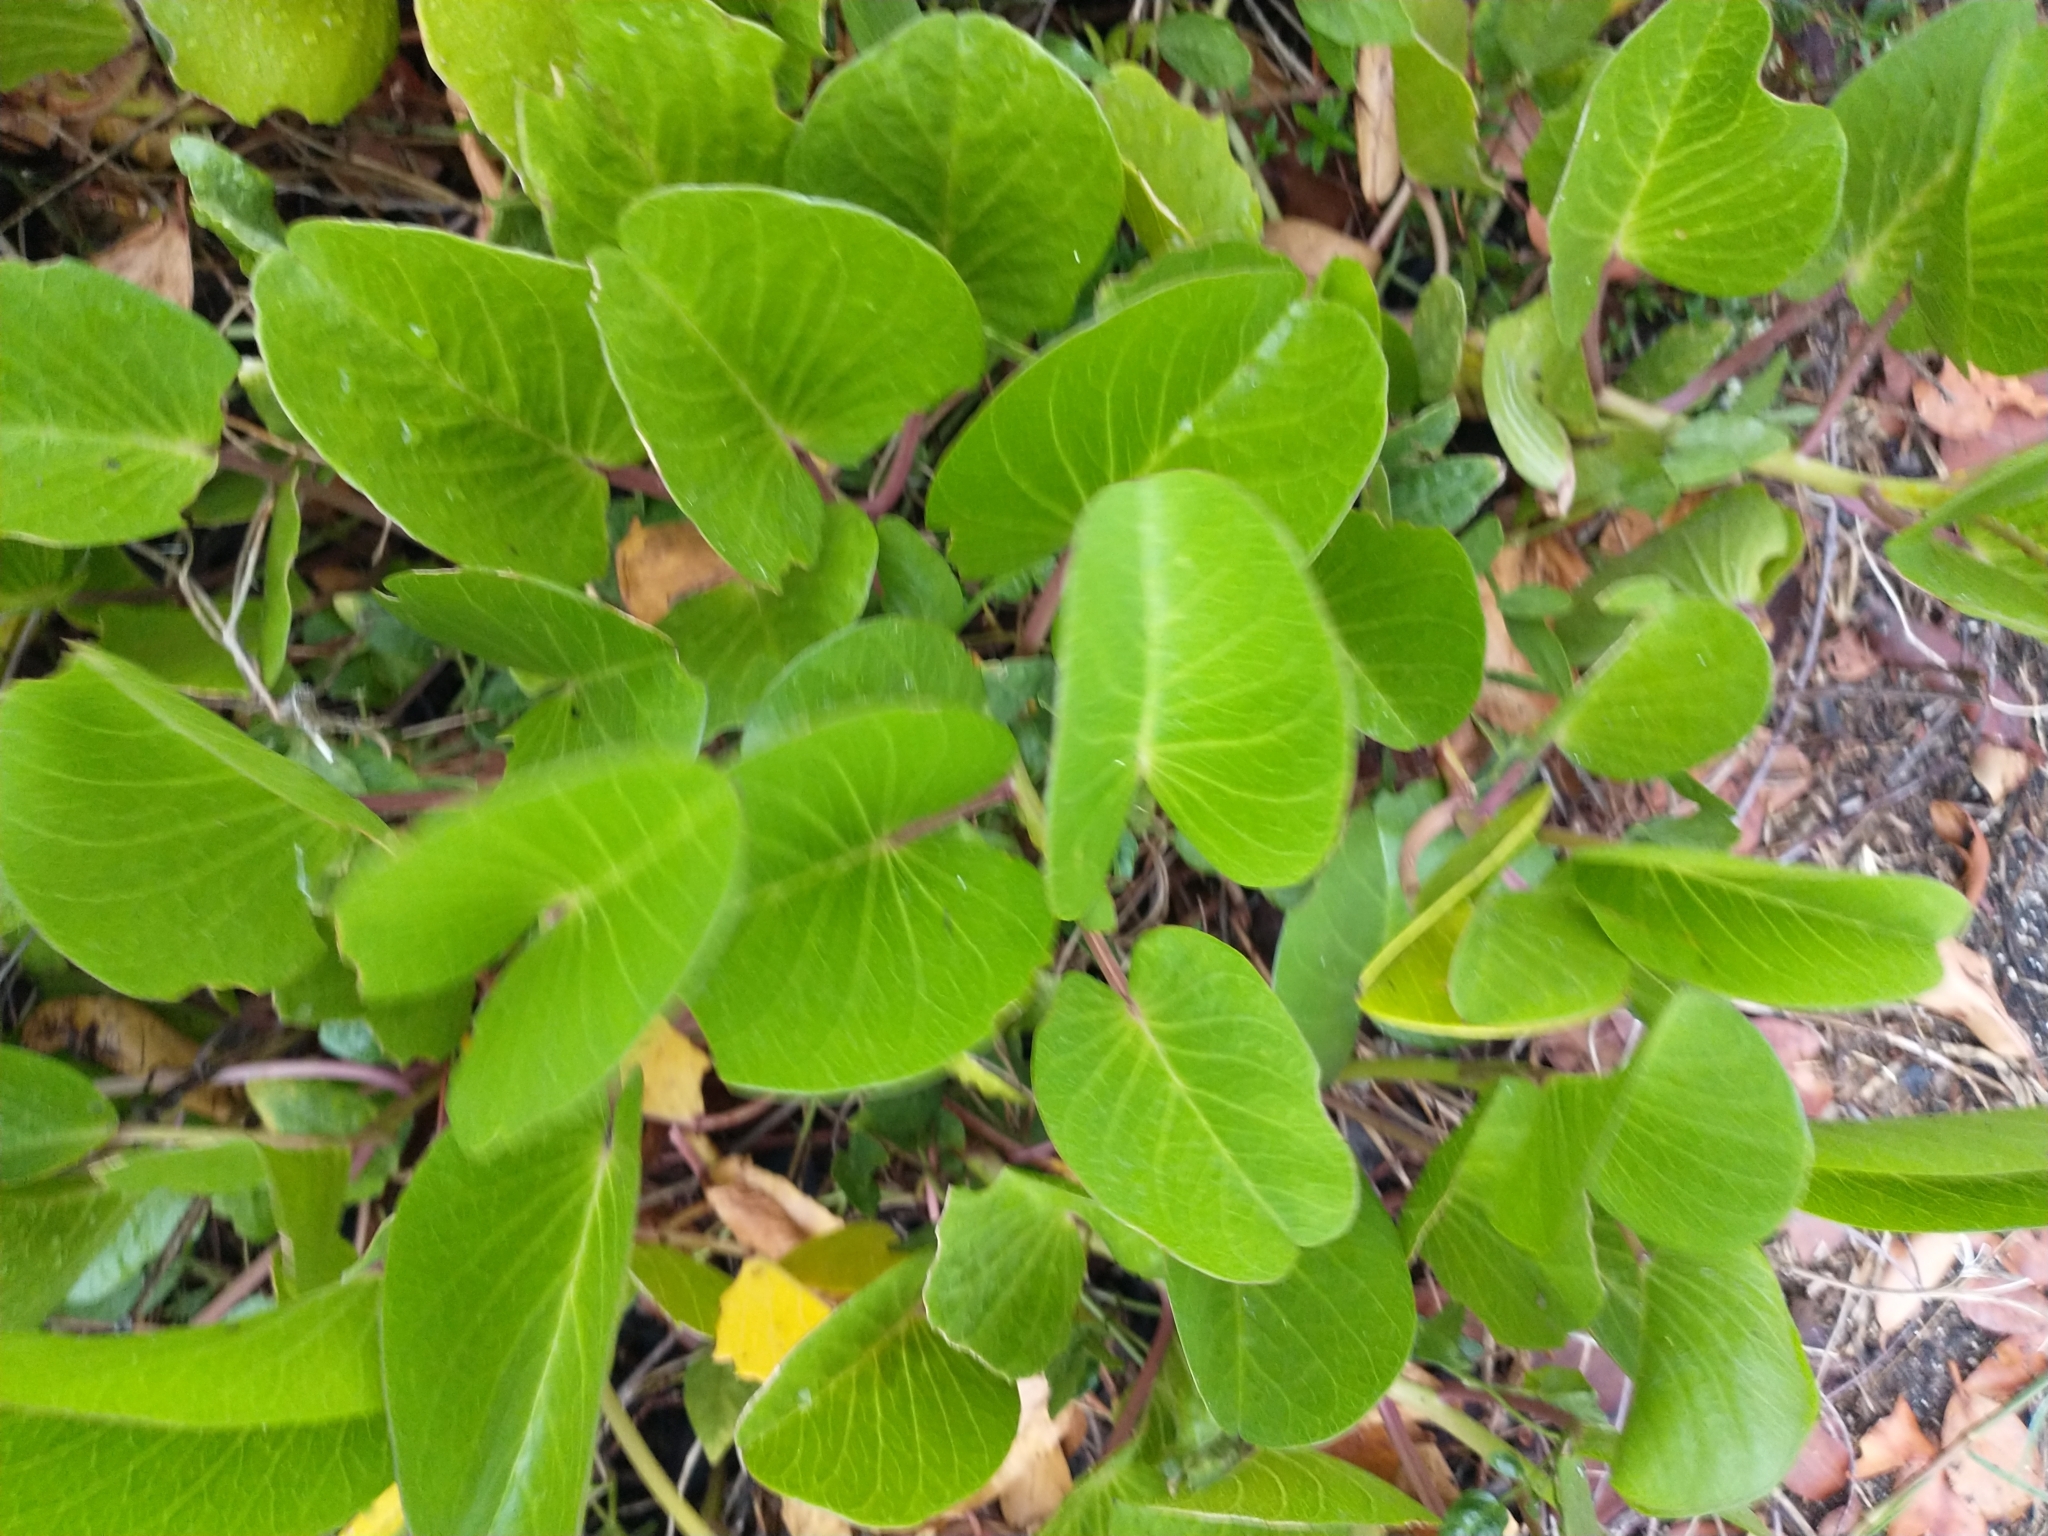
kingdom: Plantae
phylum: Tracheophyta
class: Magnoliopsida
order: Solanales
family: Convolvulaceae
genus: Ipomoea
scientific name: Ipomoea pes-caprae
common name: Beach morning glory
